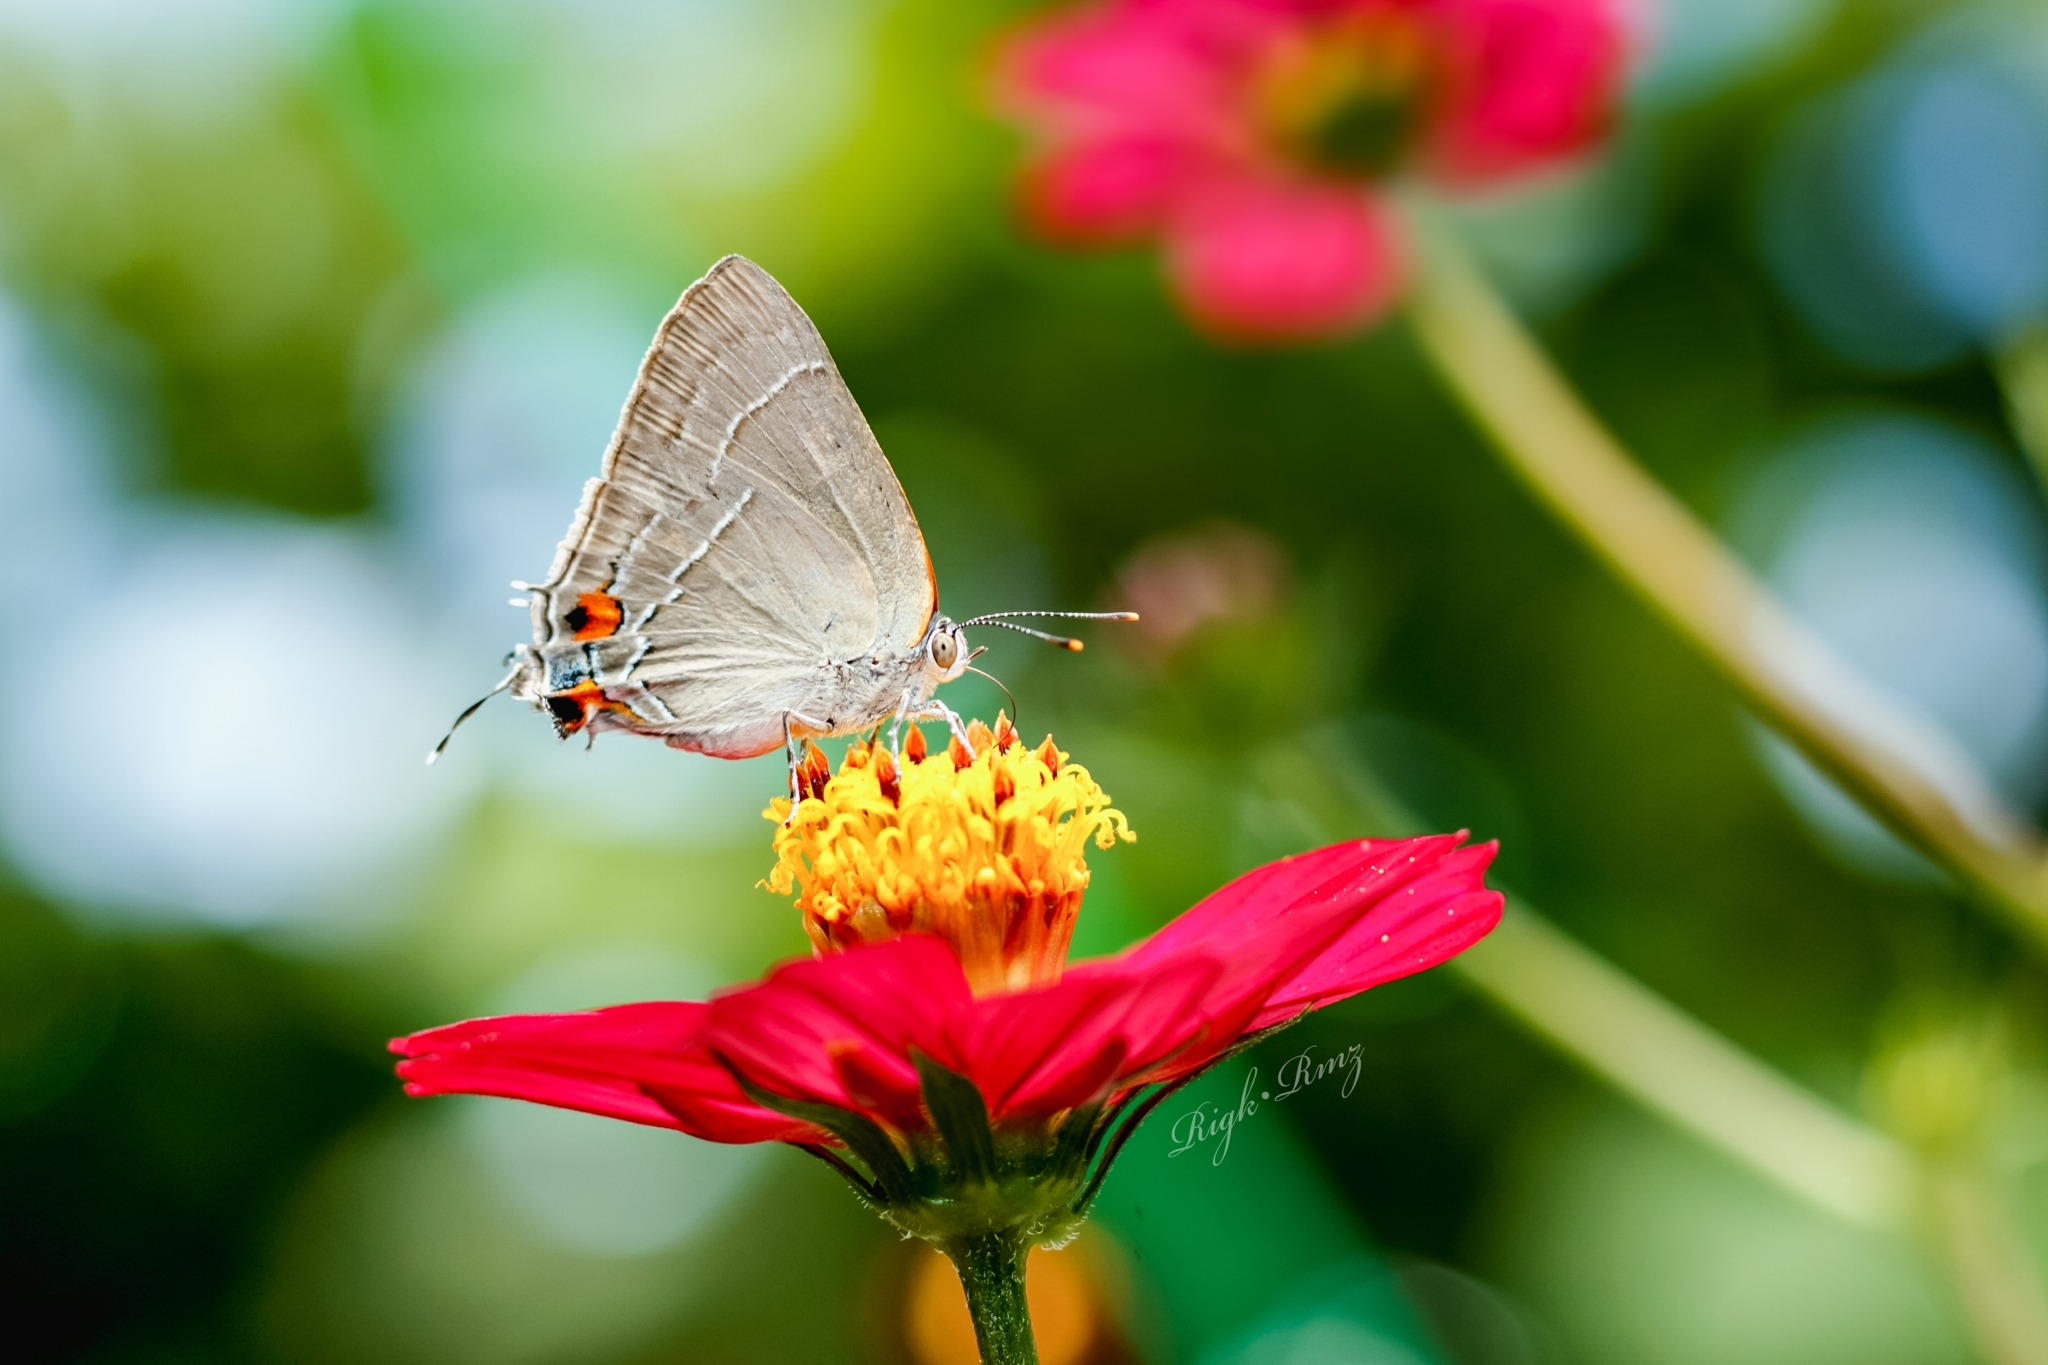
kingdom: Animalia
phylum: Arthropoda
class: Insecta
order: Lepidoptera
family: Lycaenidae
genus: Rekoa
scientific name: Rekoa
